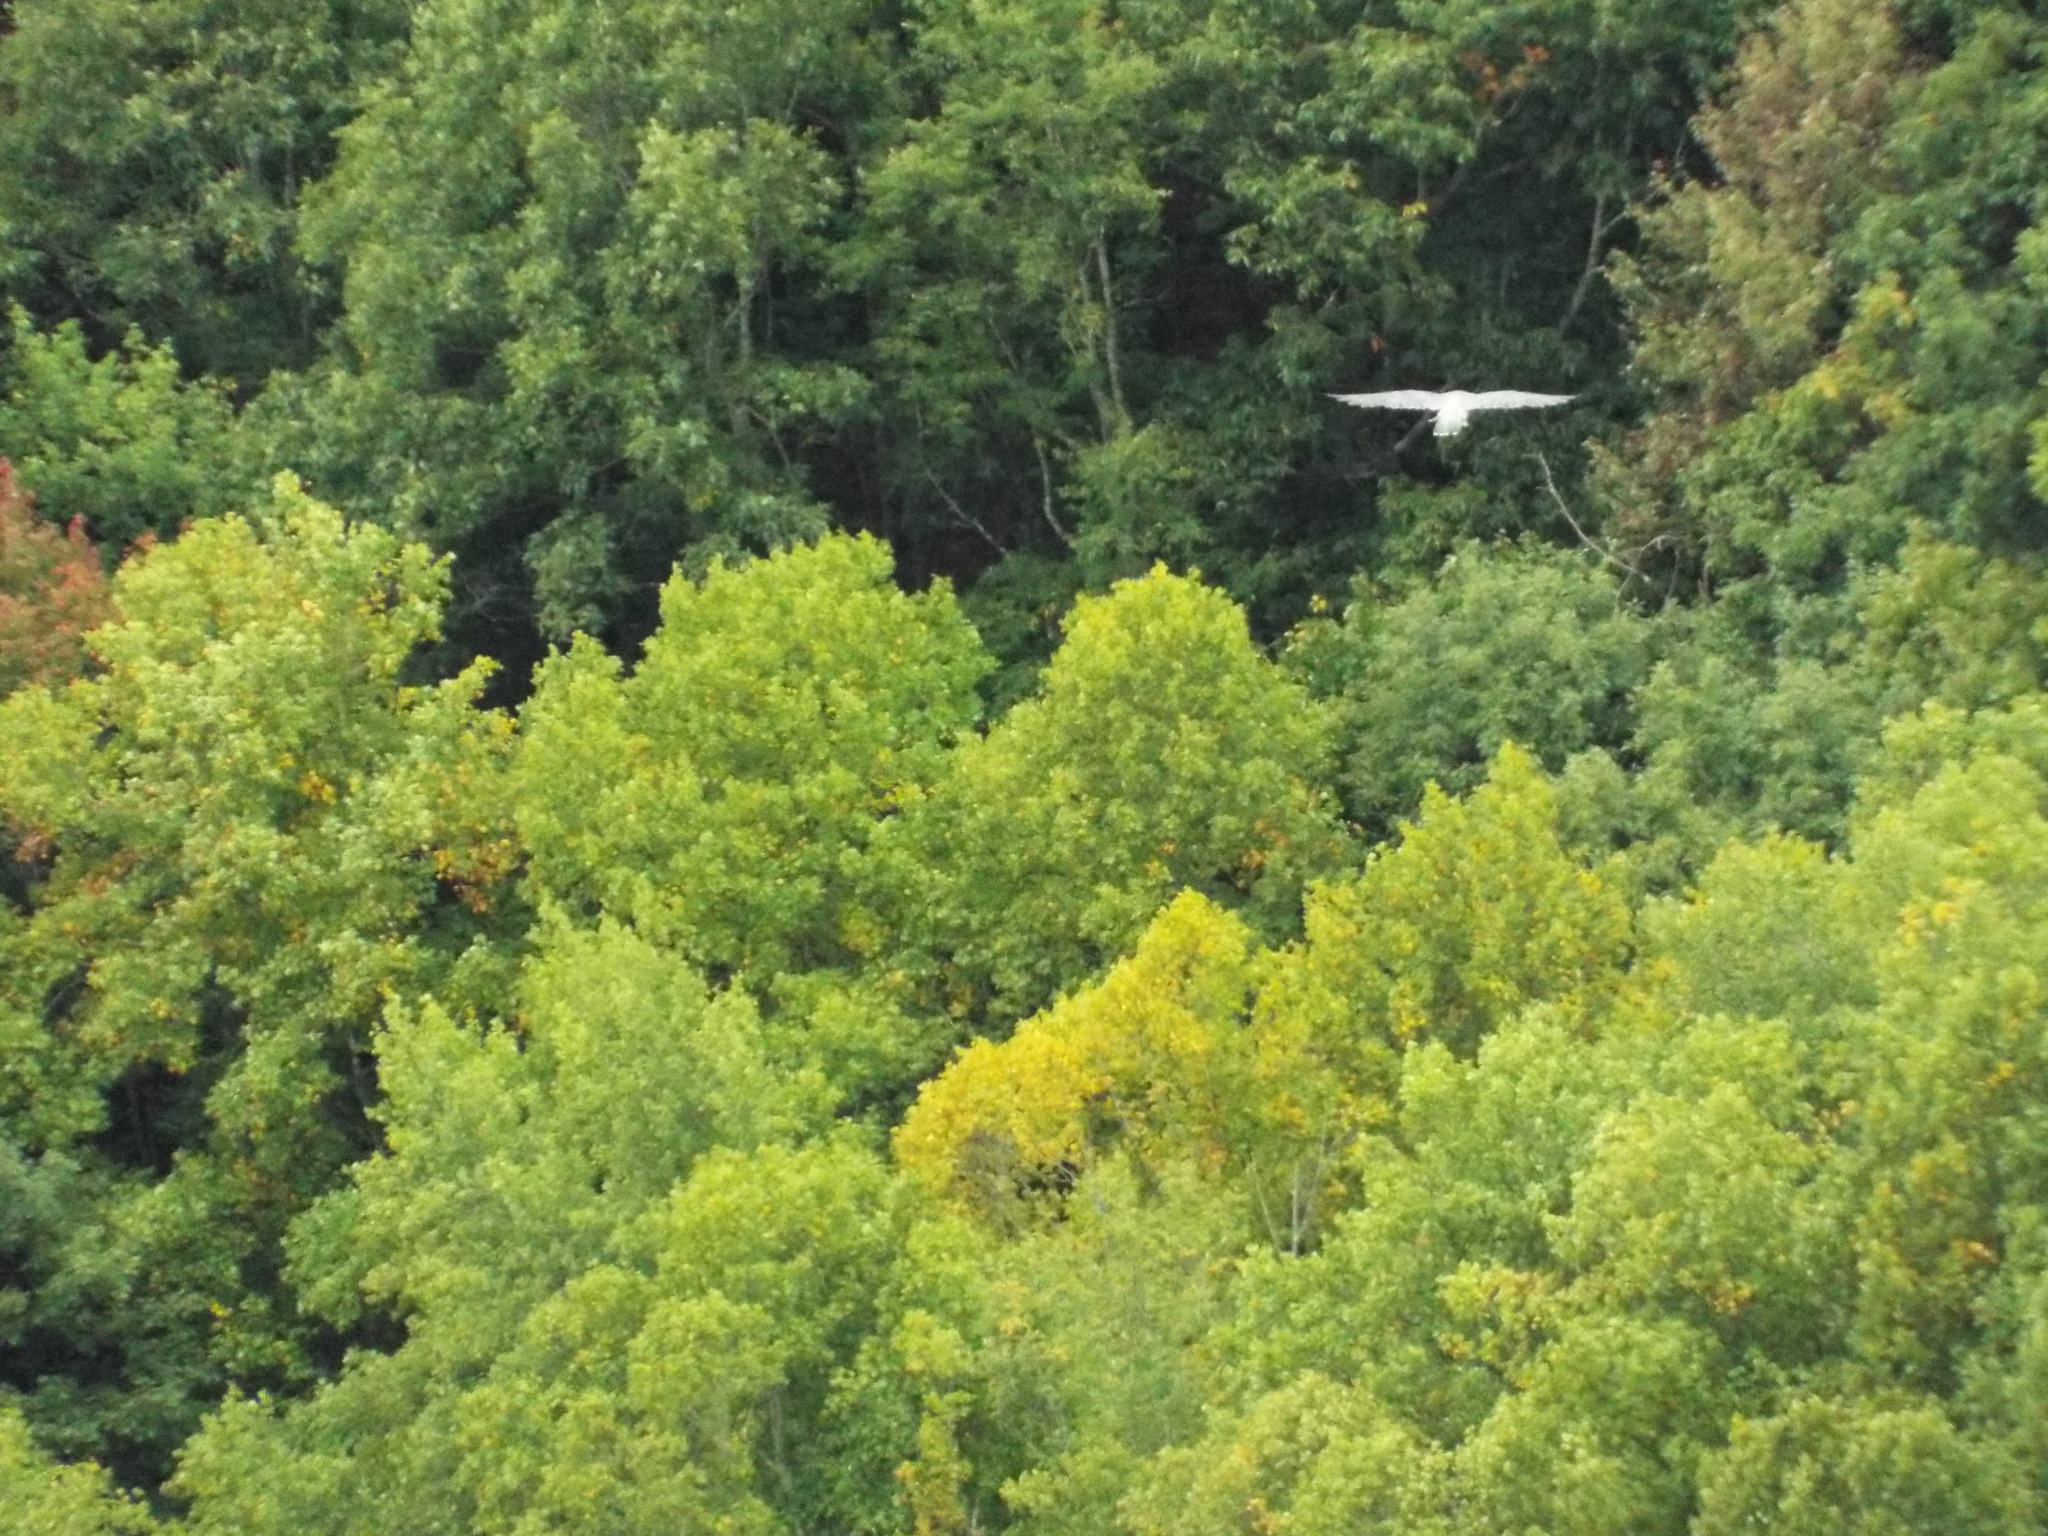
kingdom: Animalia
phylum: Chordata
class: Aves
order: Falconiformes
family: Falconidae
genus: Falco
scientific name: Falco peregrinus
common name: Peregrine falcon
